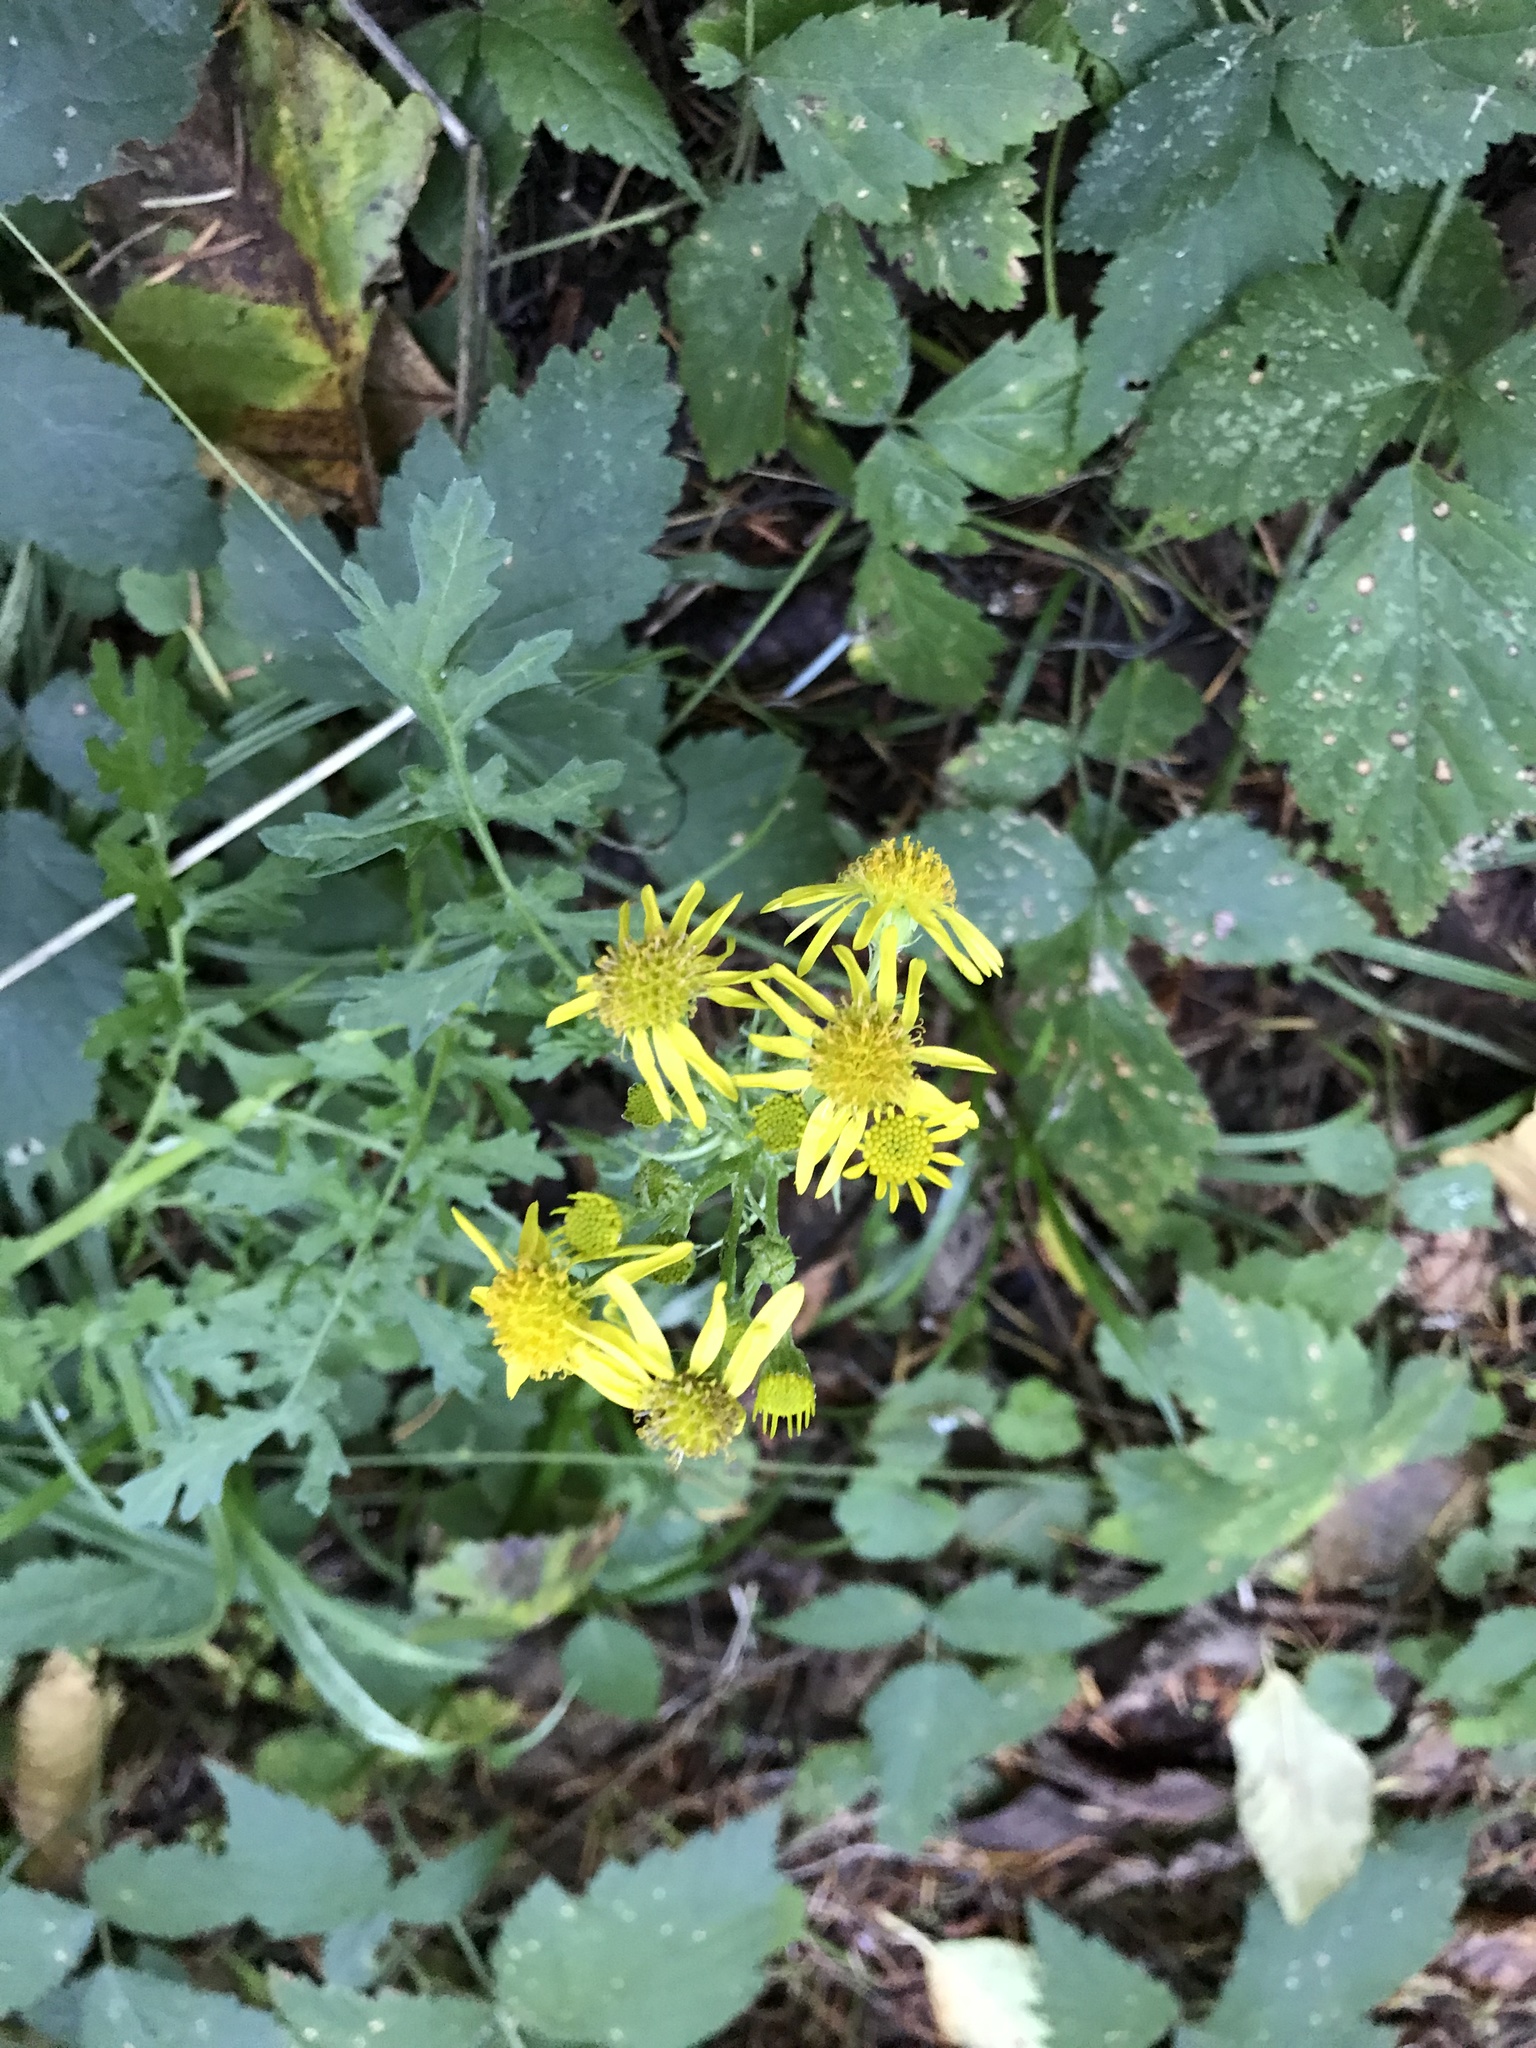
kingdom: Plantae
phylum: Tracheophyta
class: Magnoliopsida
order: Asterales
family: Asteraceae
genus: Jacobaea
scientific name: Jacobaea vulgaris
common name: Stinking willie
